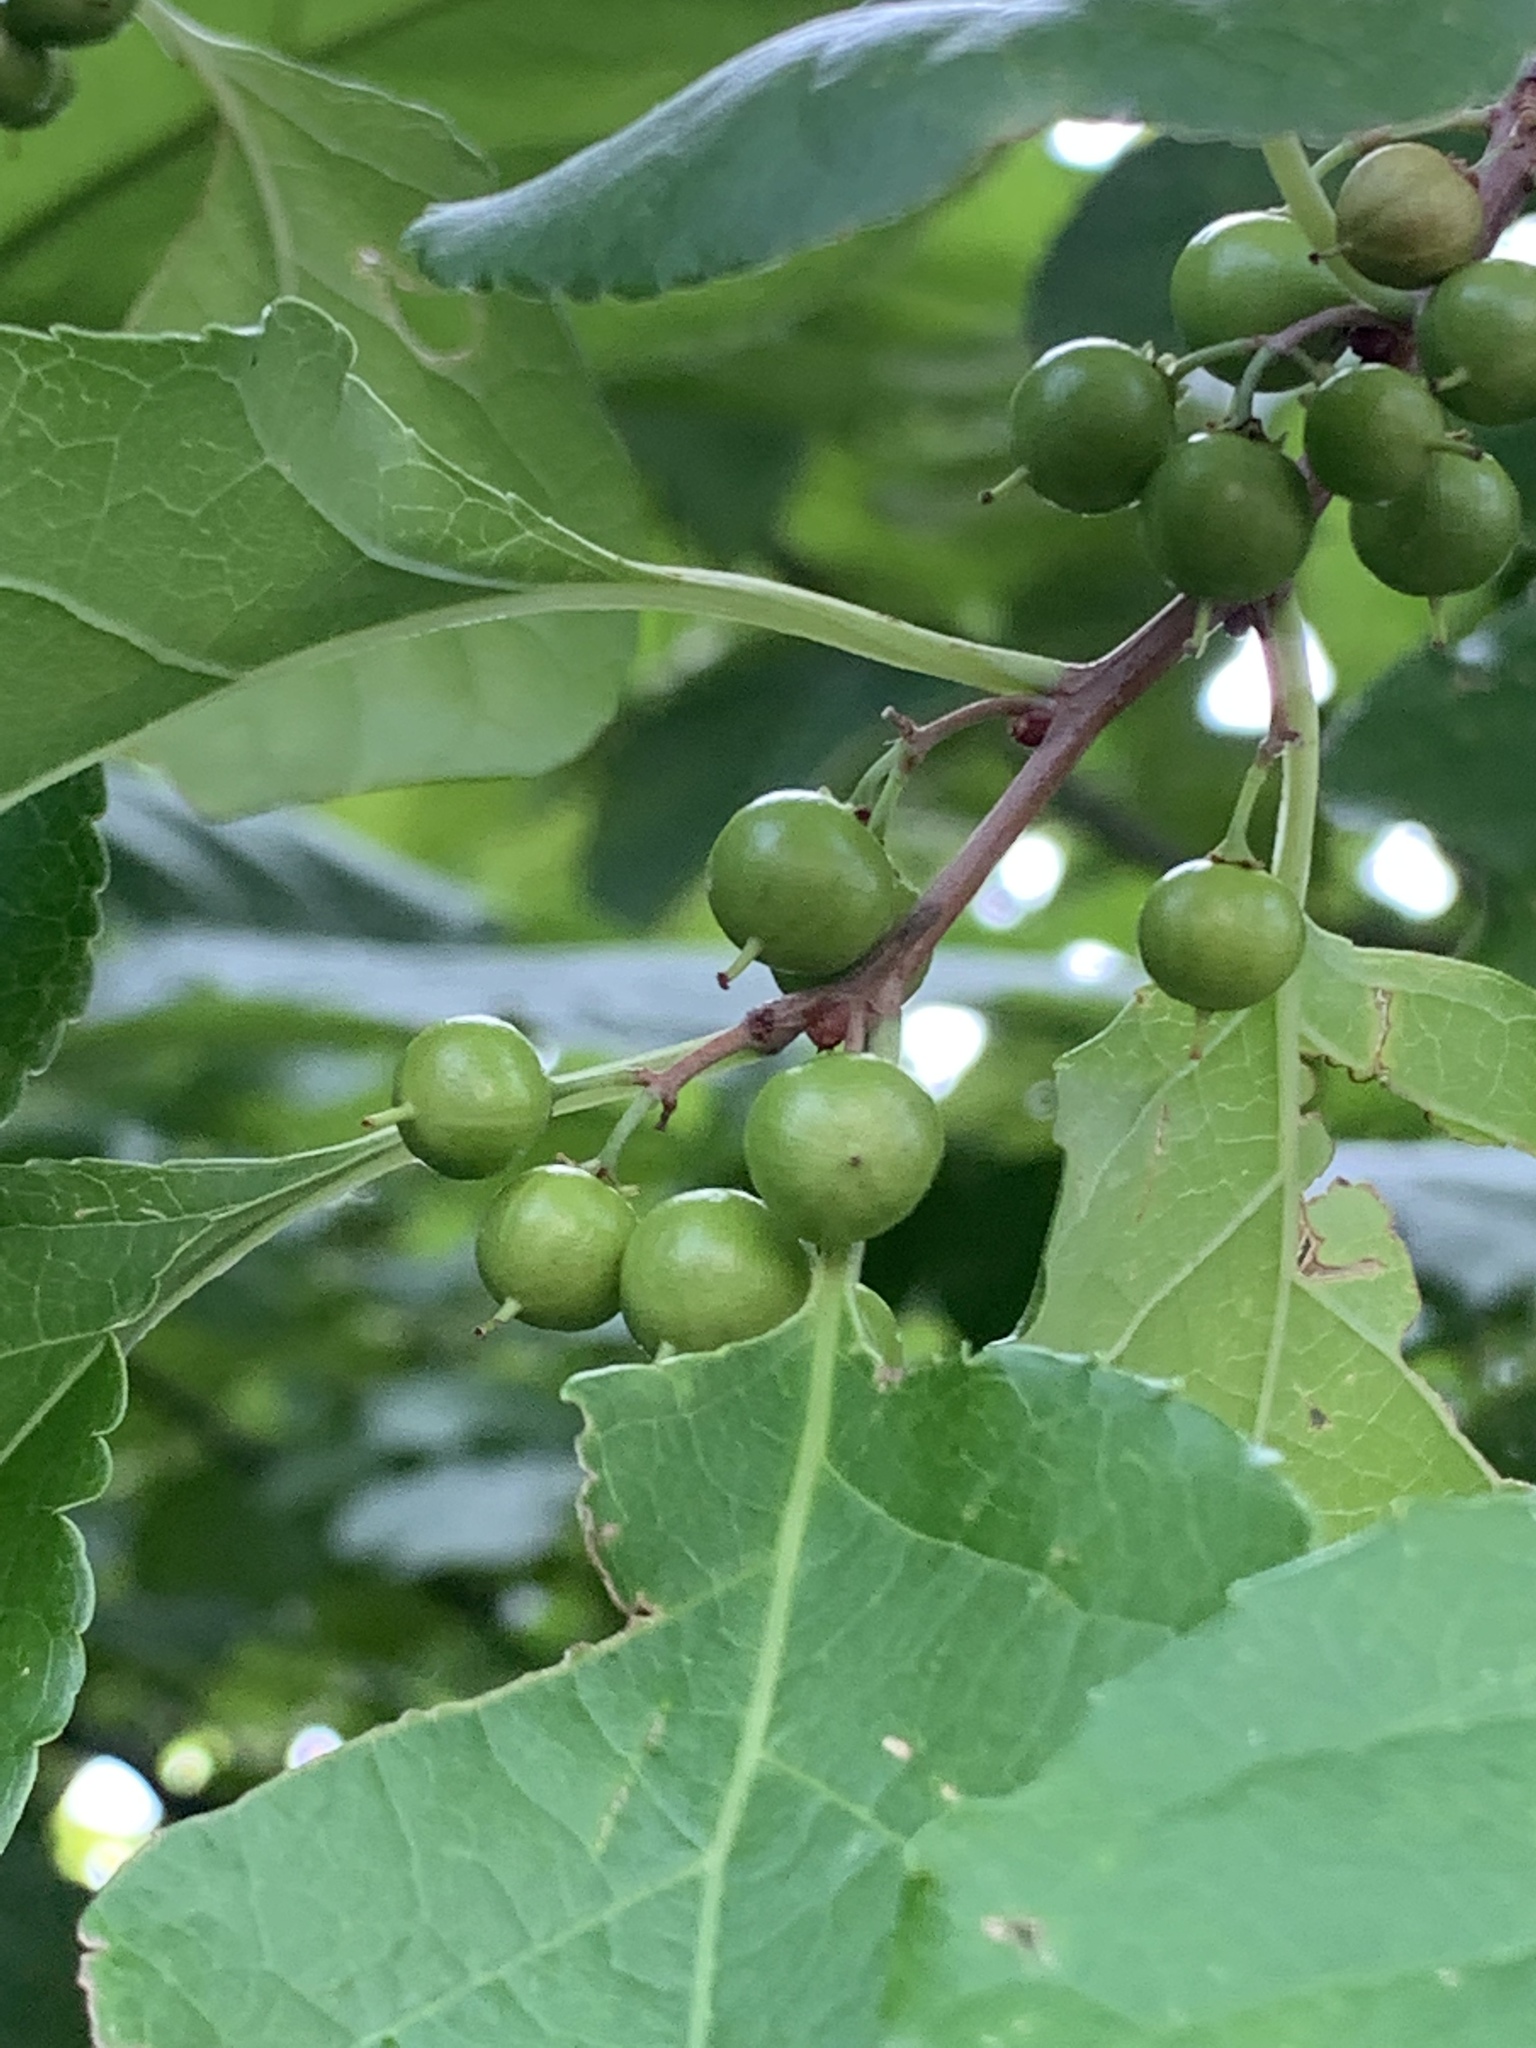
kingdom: Plantae
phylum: Tracheophyta
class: Magnoliopsida
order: Celastrales
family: Celastraceae
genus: Celastrus
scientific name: Celastrus orbiculatus
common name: Oriental bittersweet
